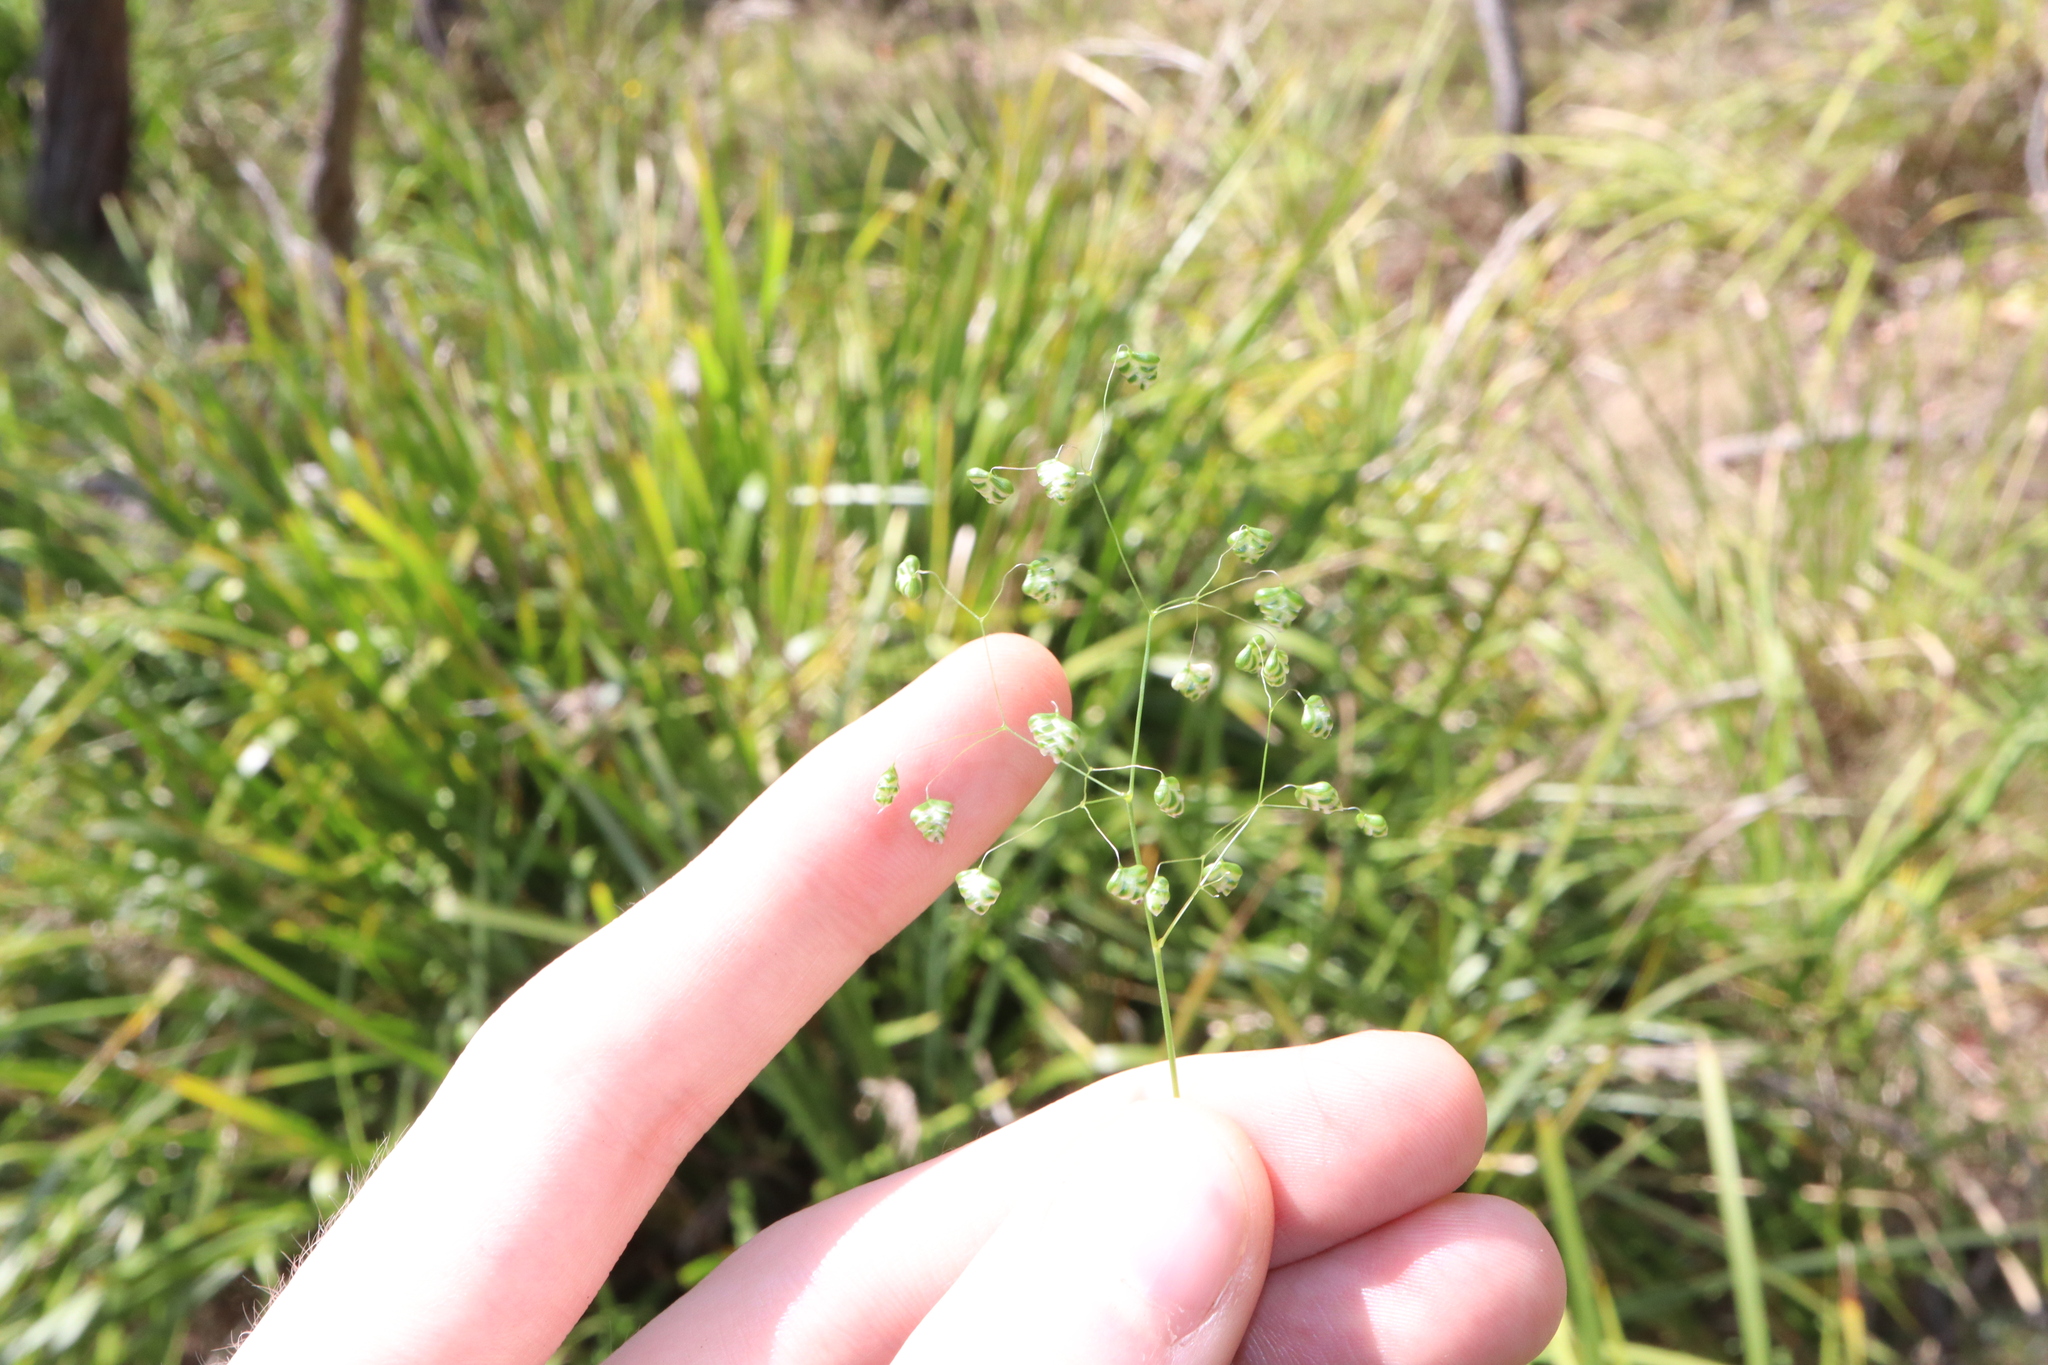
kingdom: Plantae
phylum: Tracheophyta
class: Liliopsida
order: Poales
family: Poaceae
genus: Briza
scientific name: Briza minor
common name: Lesser quaking-grass
